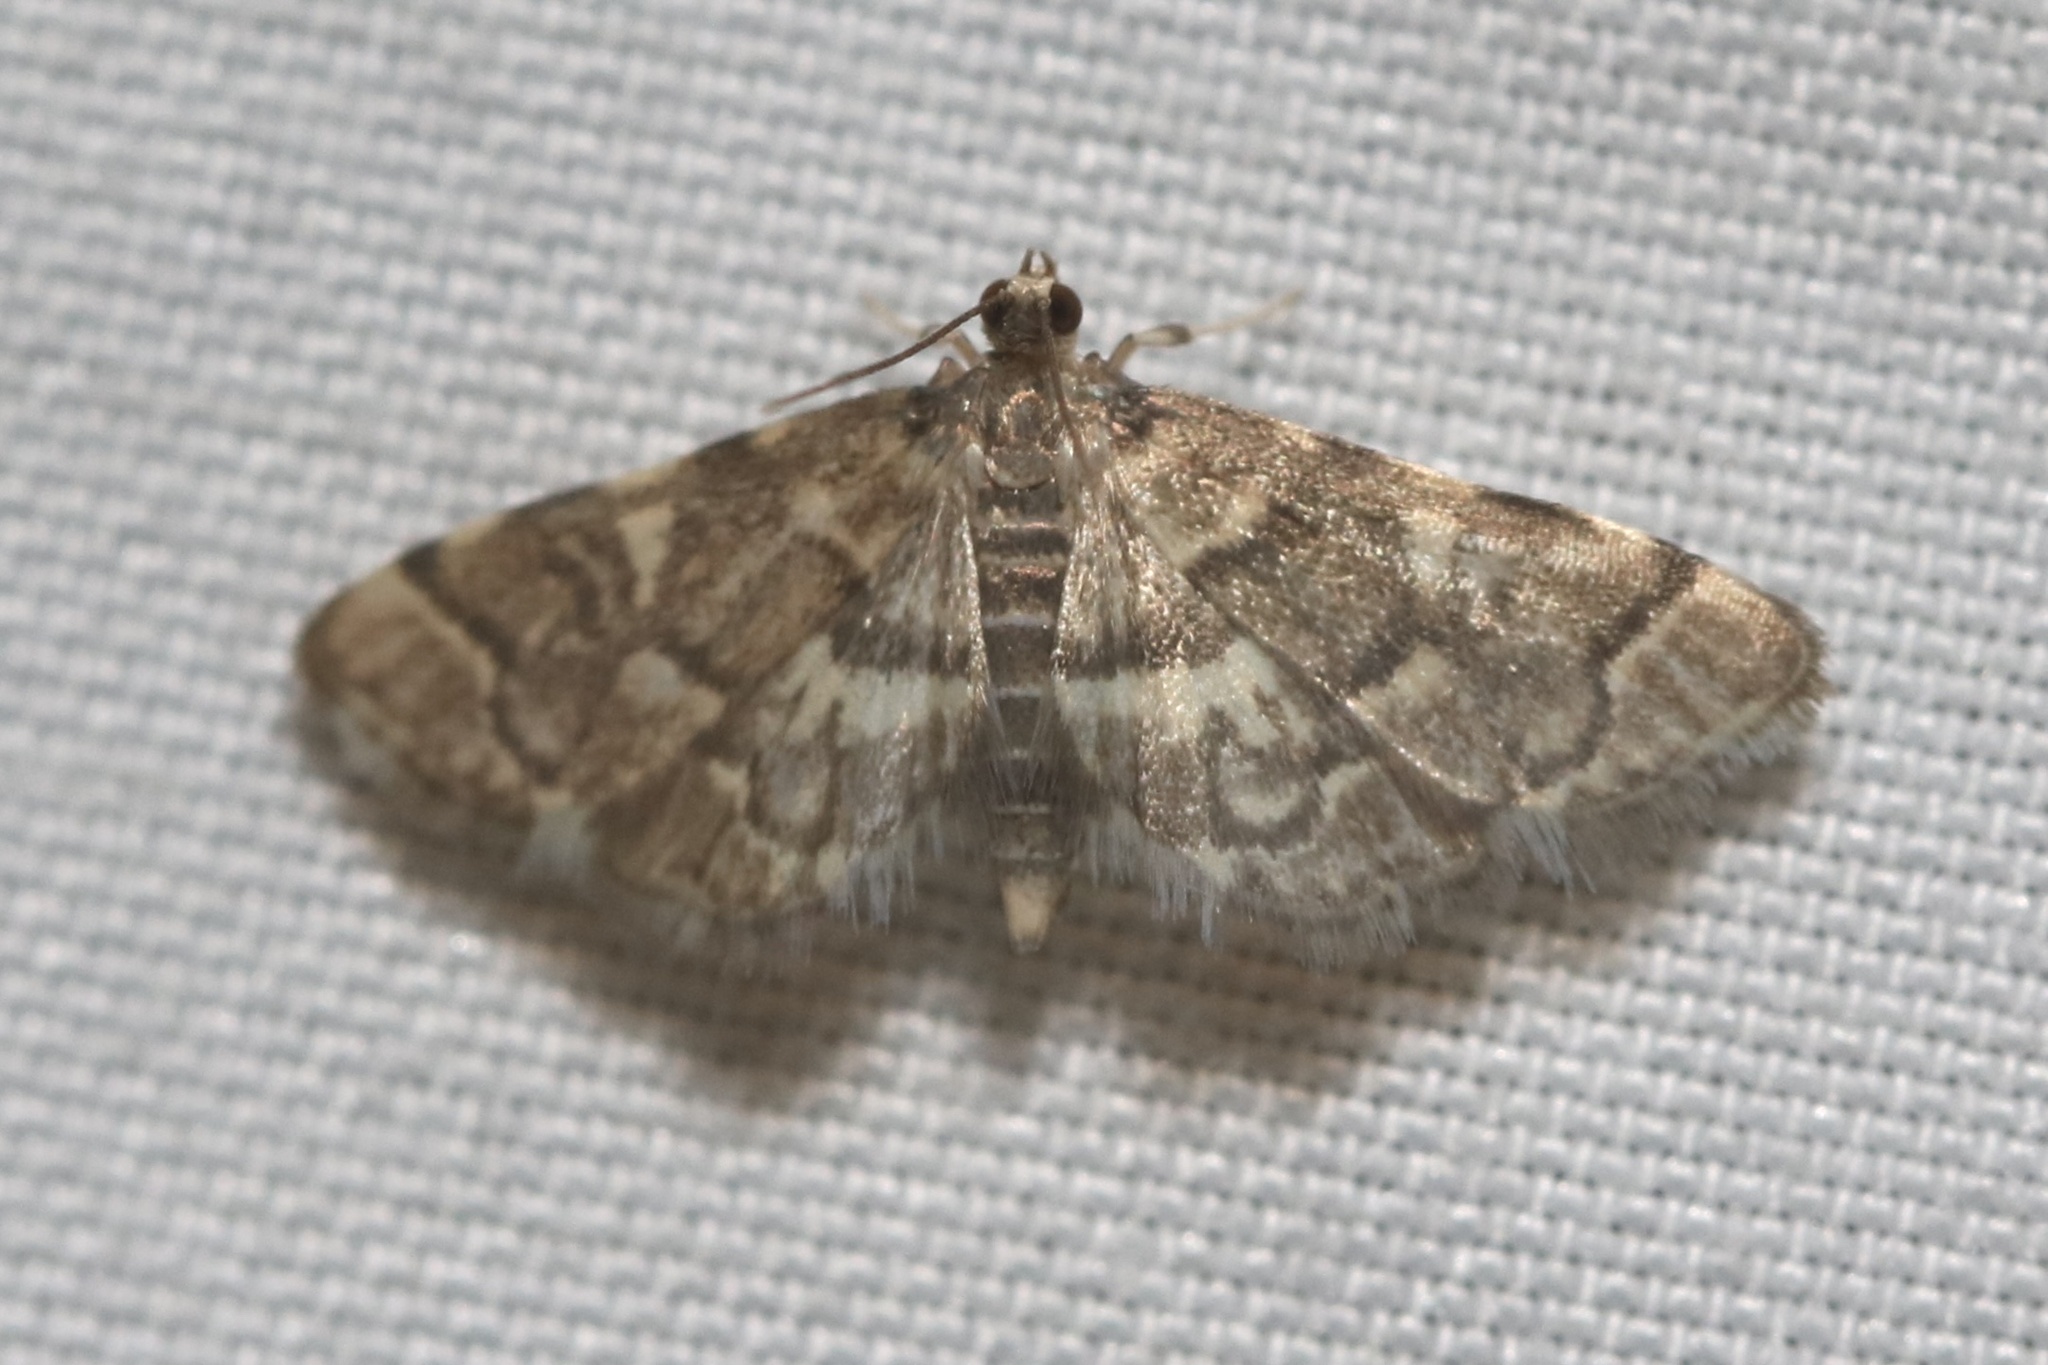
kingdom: Animalia
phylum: Arthropoda
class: Insecta
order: Lepidoptera
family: Crambidae
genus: Anageshna
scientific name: Anageshna primordialis
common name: Yellow-spotted webworm moth
